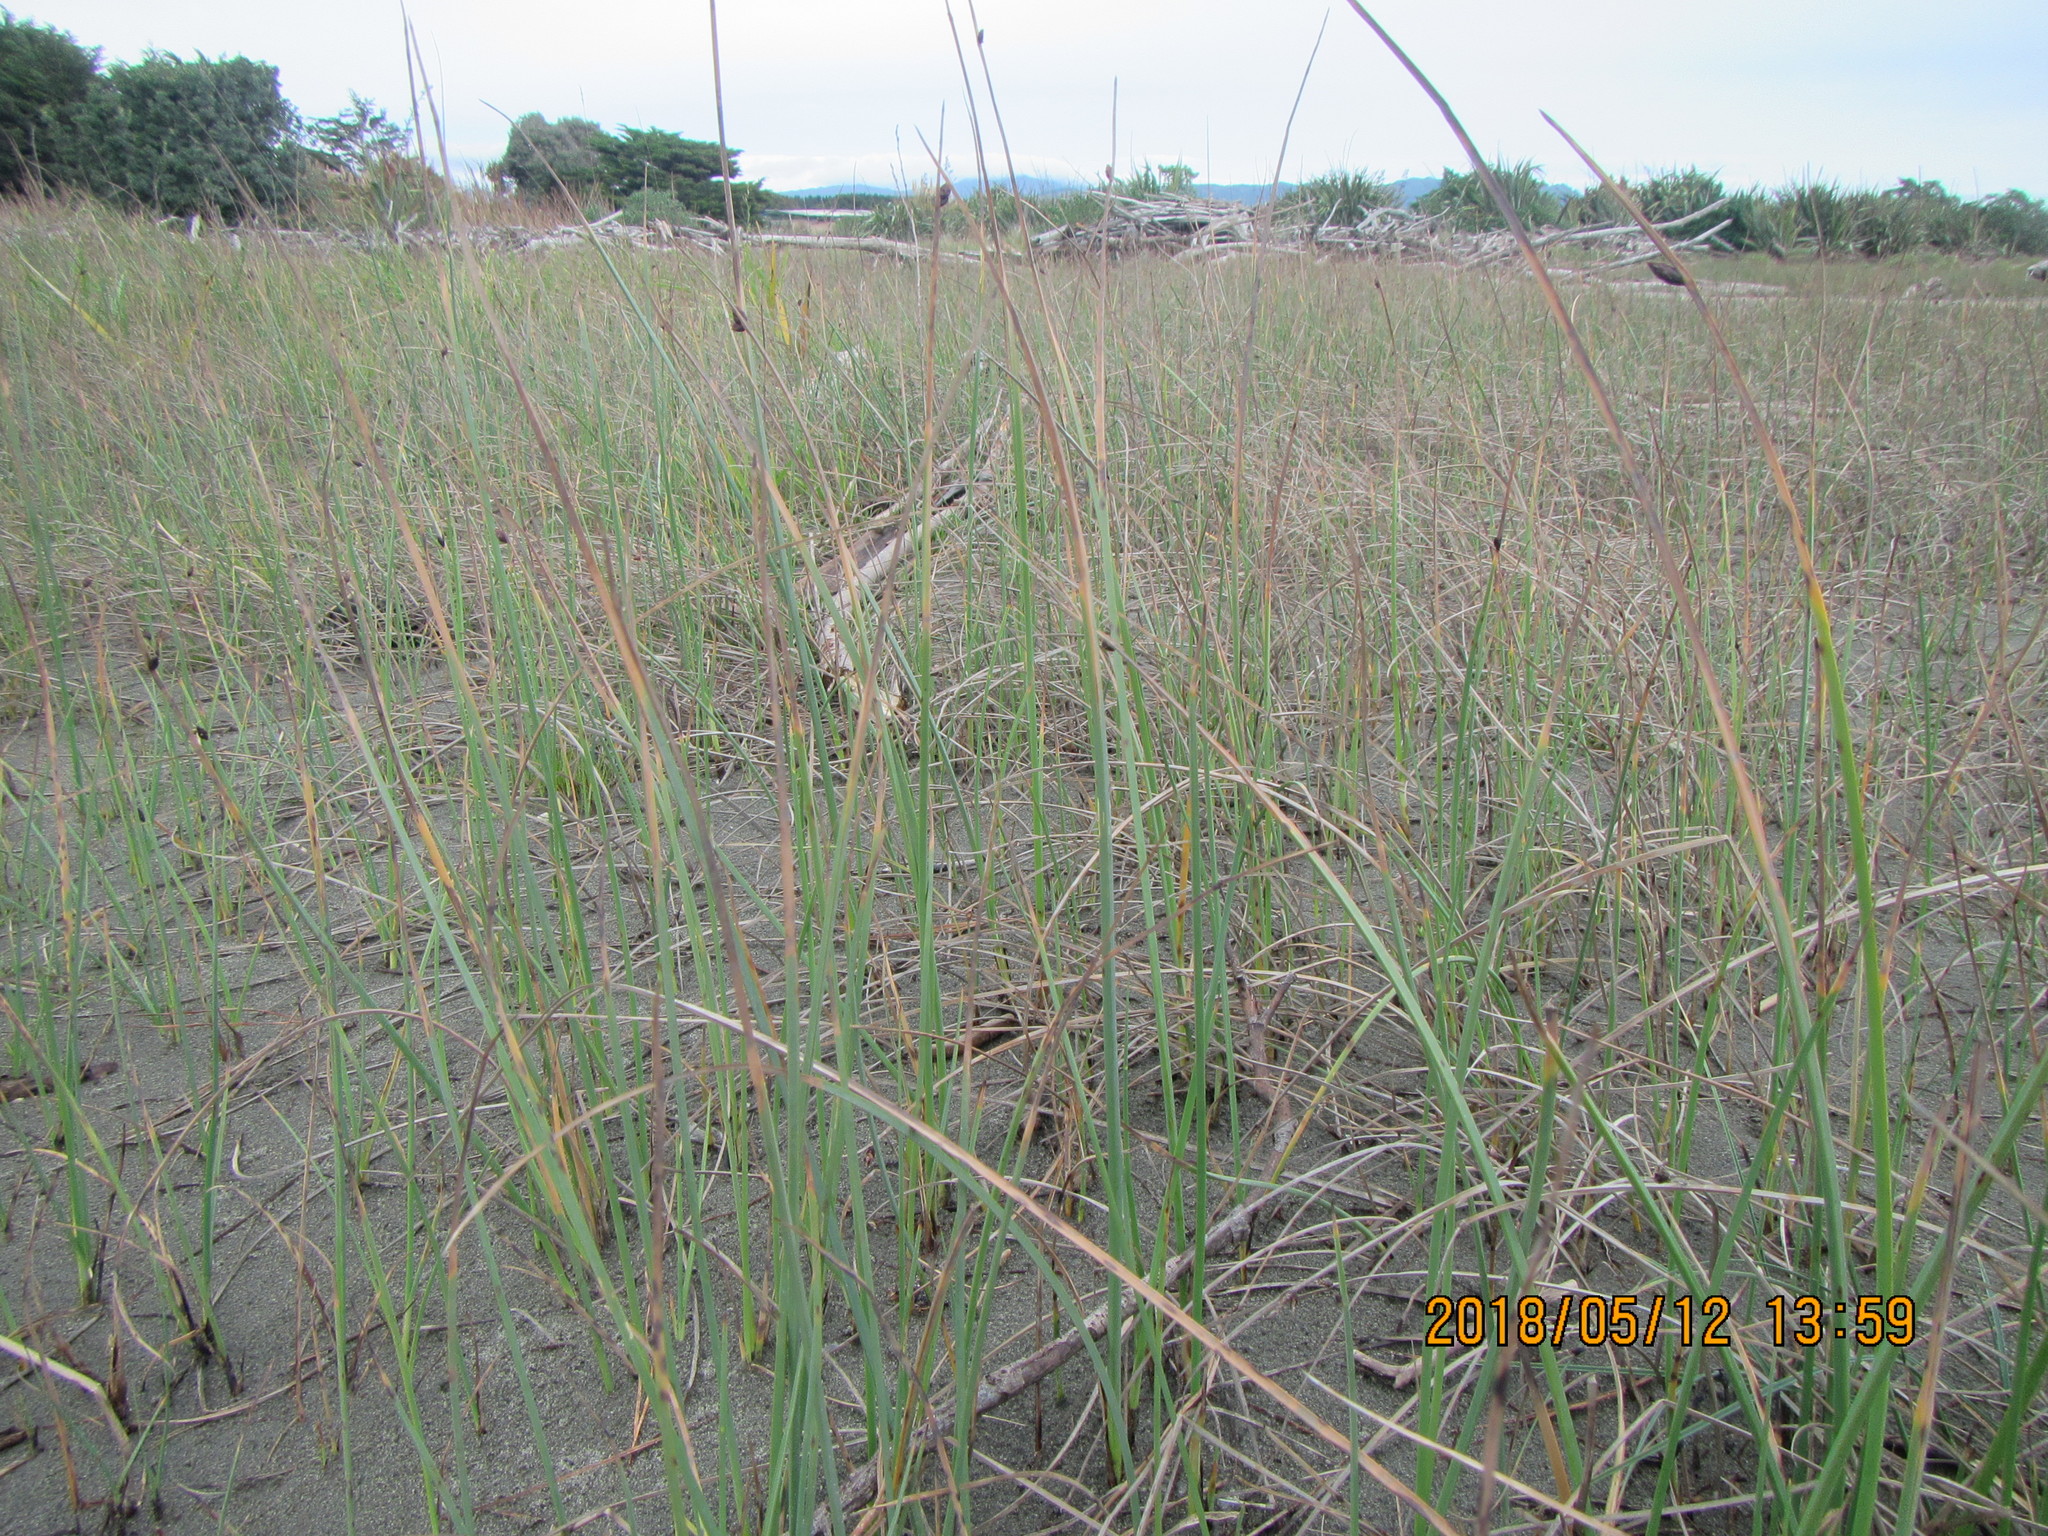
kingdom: Plantae
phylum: Tracheophyta
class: Liliopsida
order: Poales
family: Cyperaceae
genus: Schoenoplectus
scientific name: Schoenoplectus pungens
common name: Sharp club-rush
